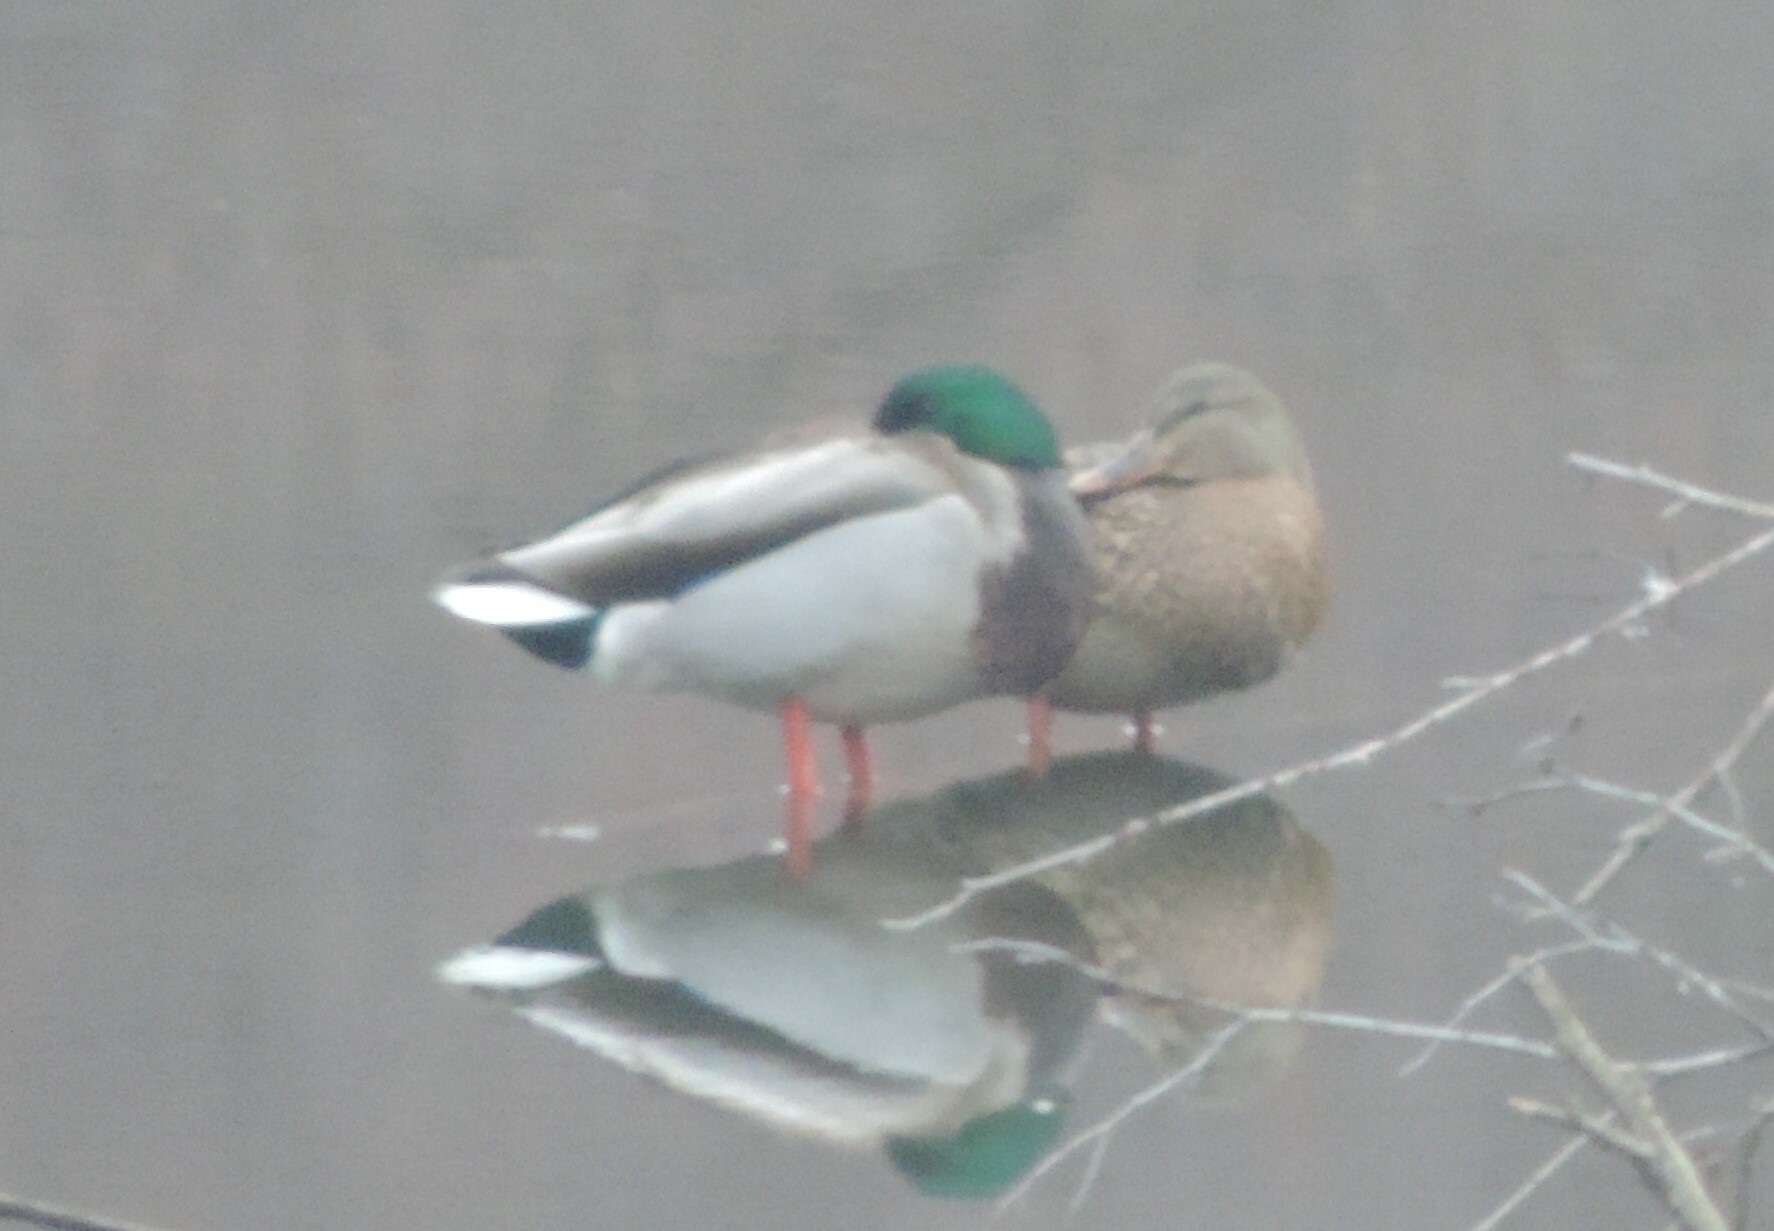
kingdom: Animalia
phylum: Chordata
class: Aves
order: Anseriformes
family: Anatidae
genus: Anas
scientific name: Anas platyrhynchos
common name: Mallard
